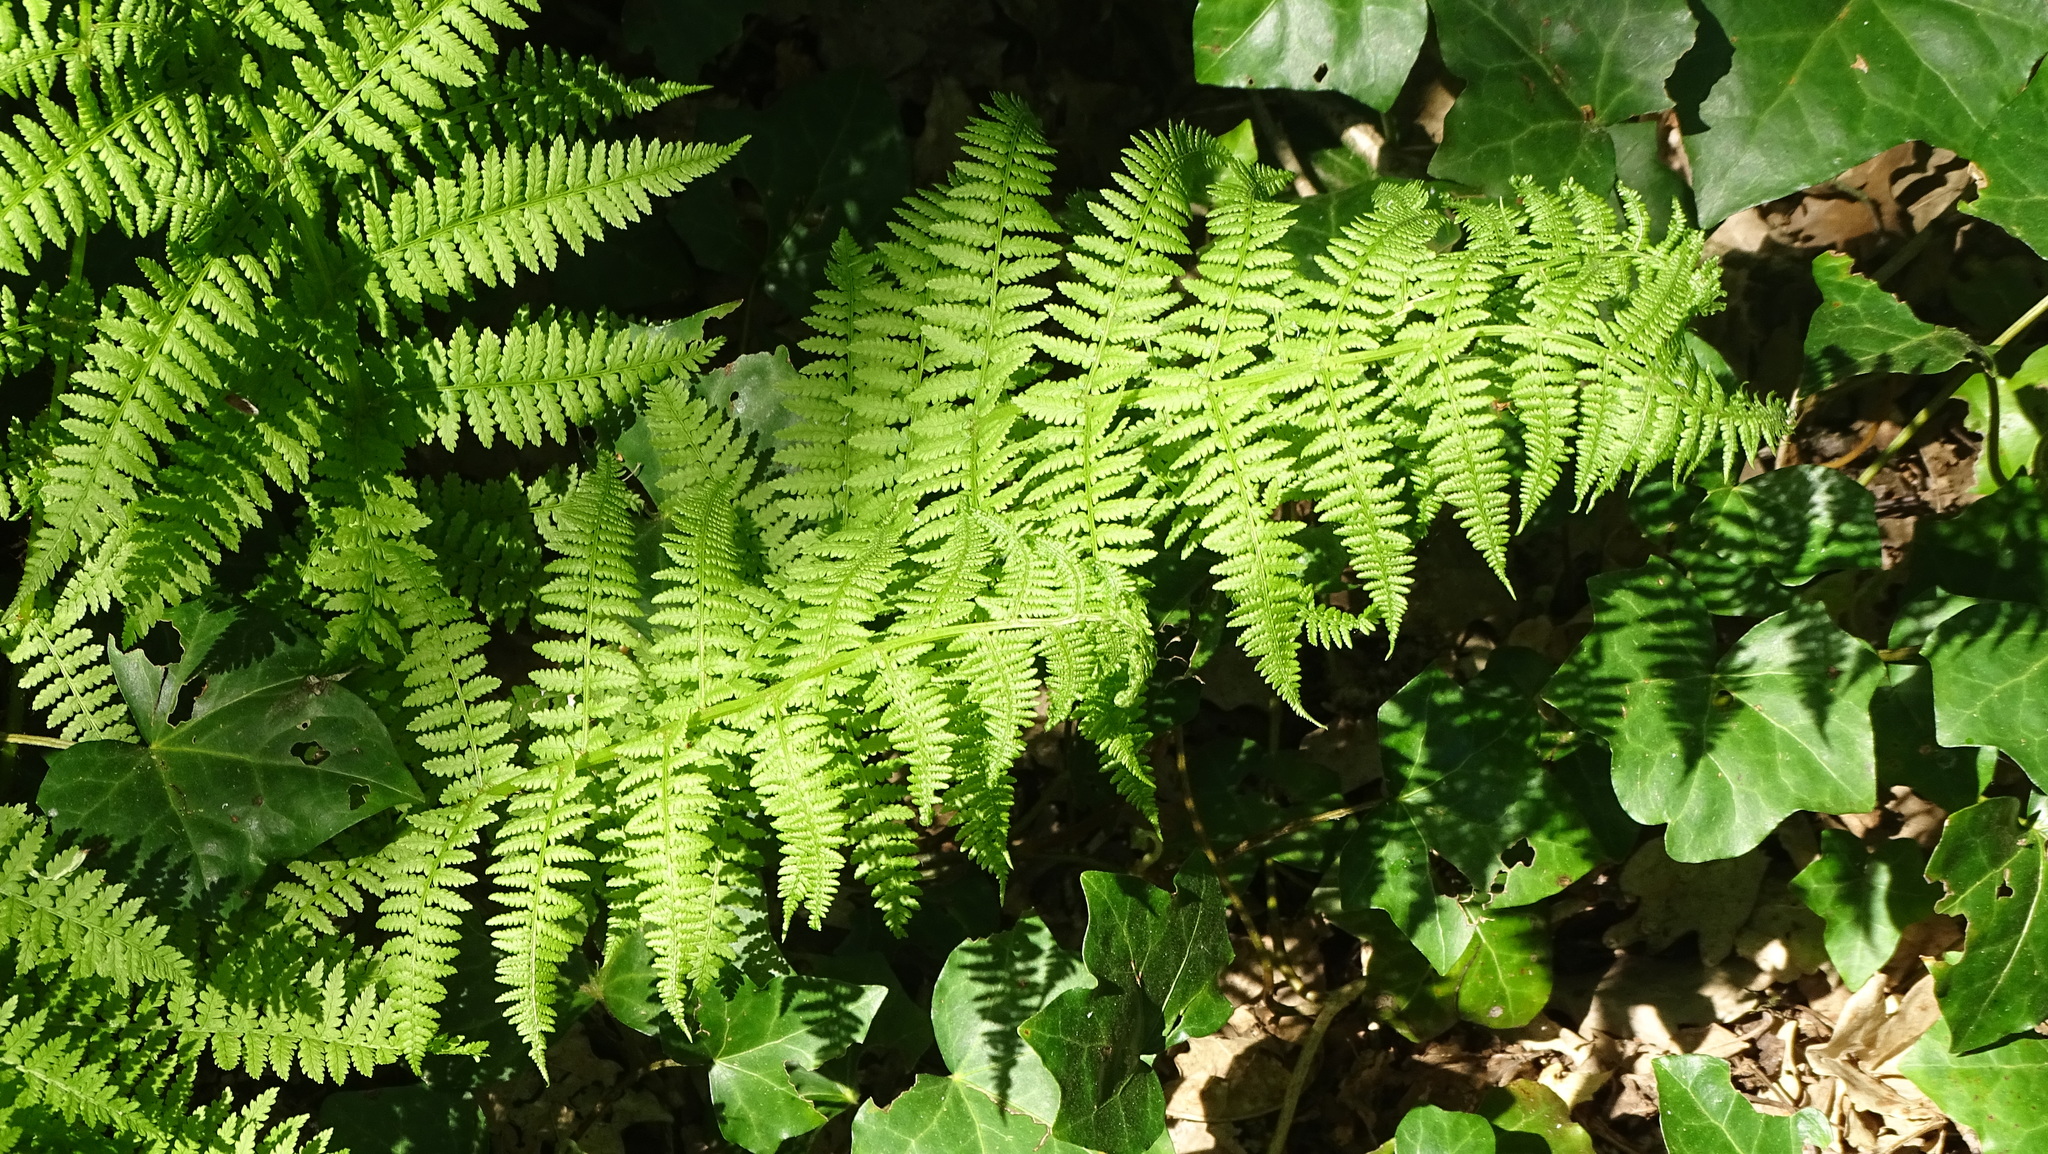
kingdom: Plantae
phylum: Tracheophyta
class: Polypodiopsida
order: Polypodiales
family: Athyriaceae
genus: Athyrium
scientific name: Athyrium filix-femina
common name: Lady fern
